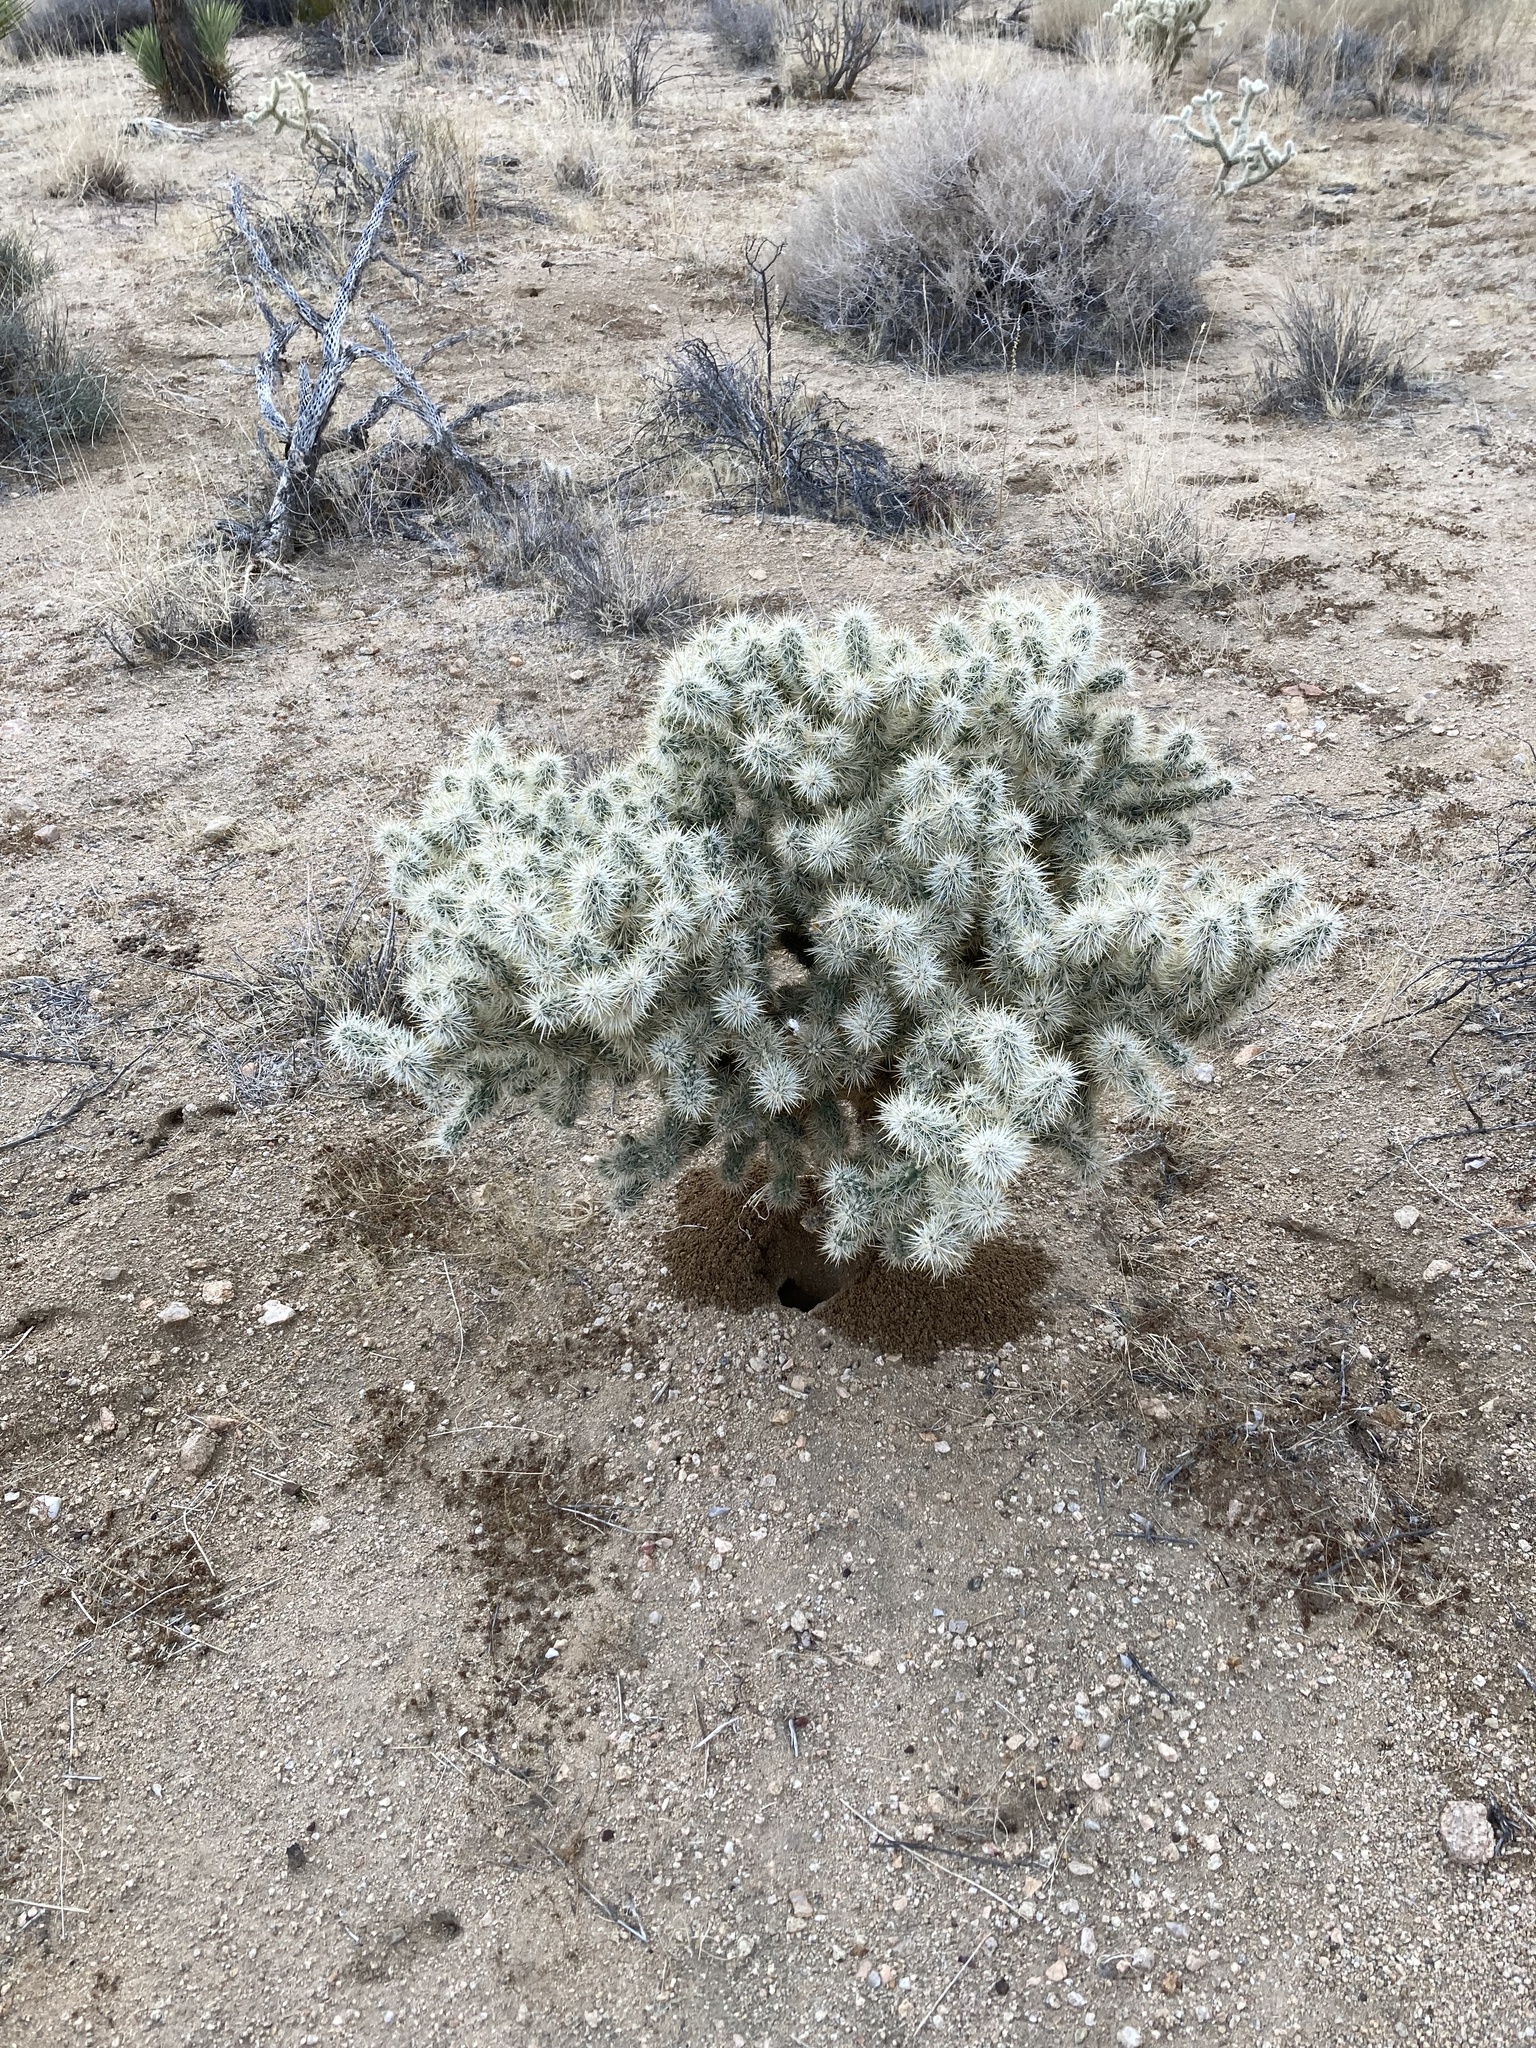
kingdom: Plantae
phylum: Tracheophyta
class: Magnoliopsida
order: Caryophyllales
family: Cactaceae
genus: Cylindropuntia
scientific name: Cylindropuntia echinocarpa
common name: Ground cholla
